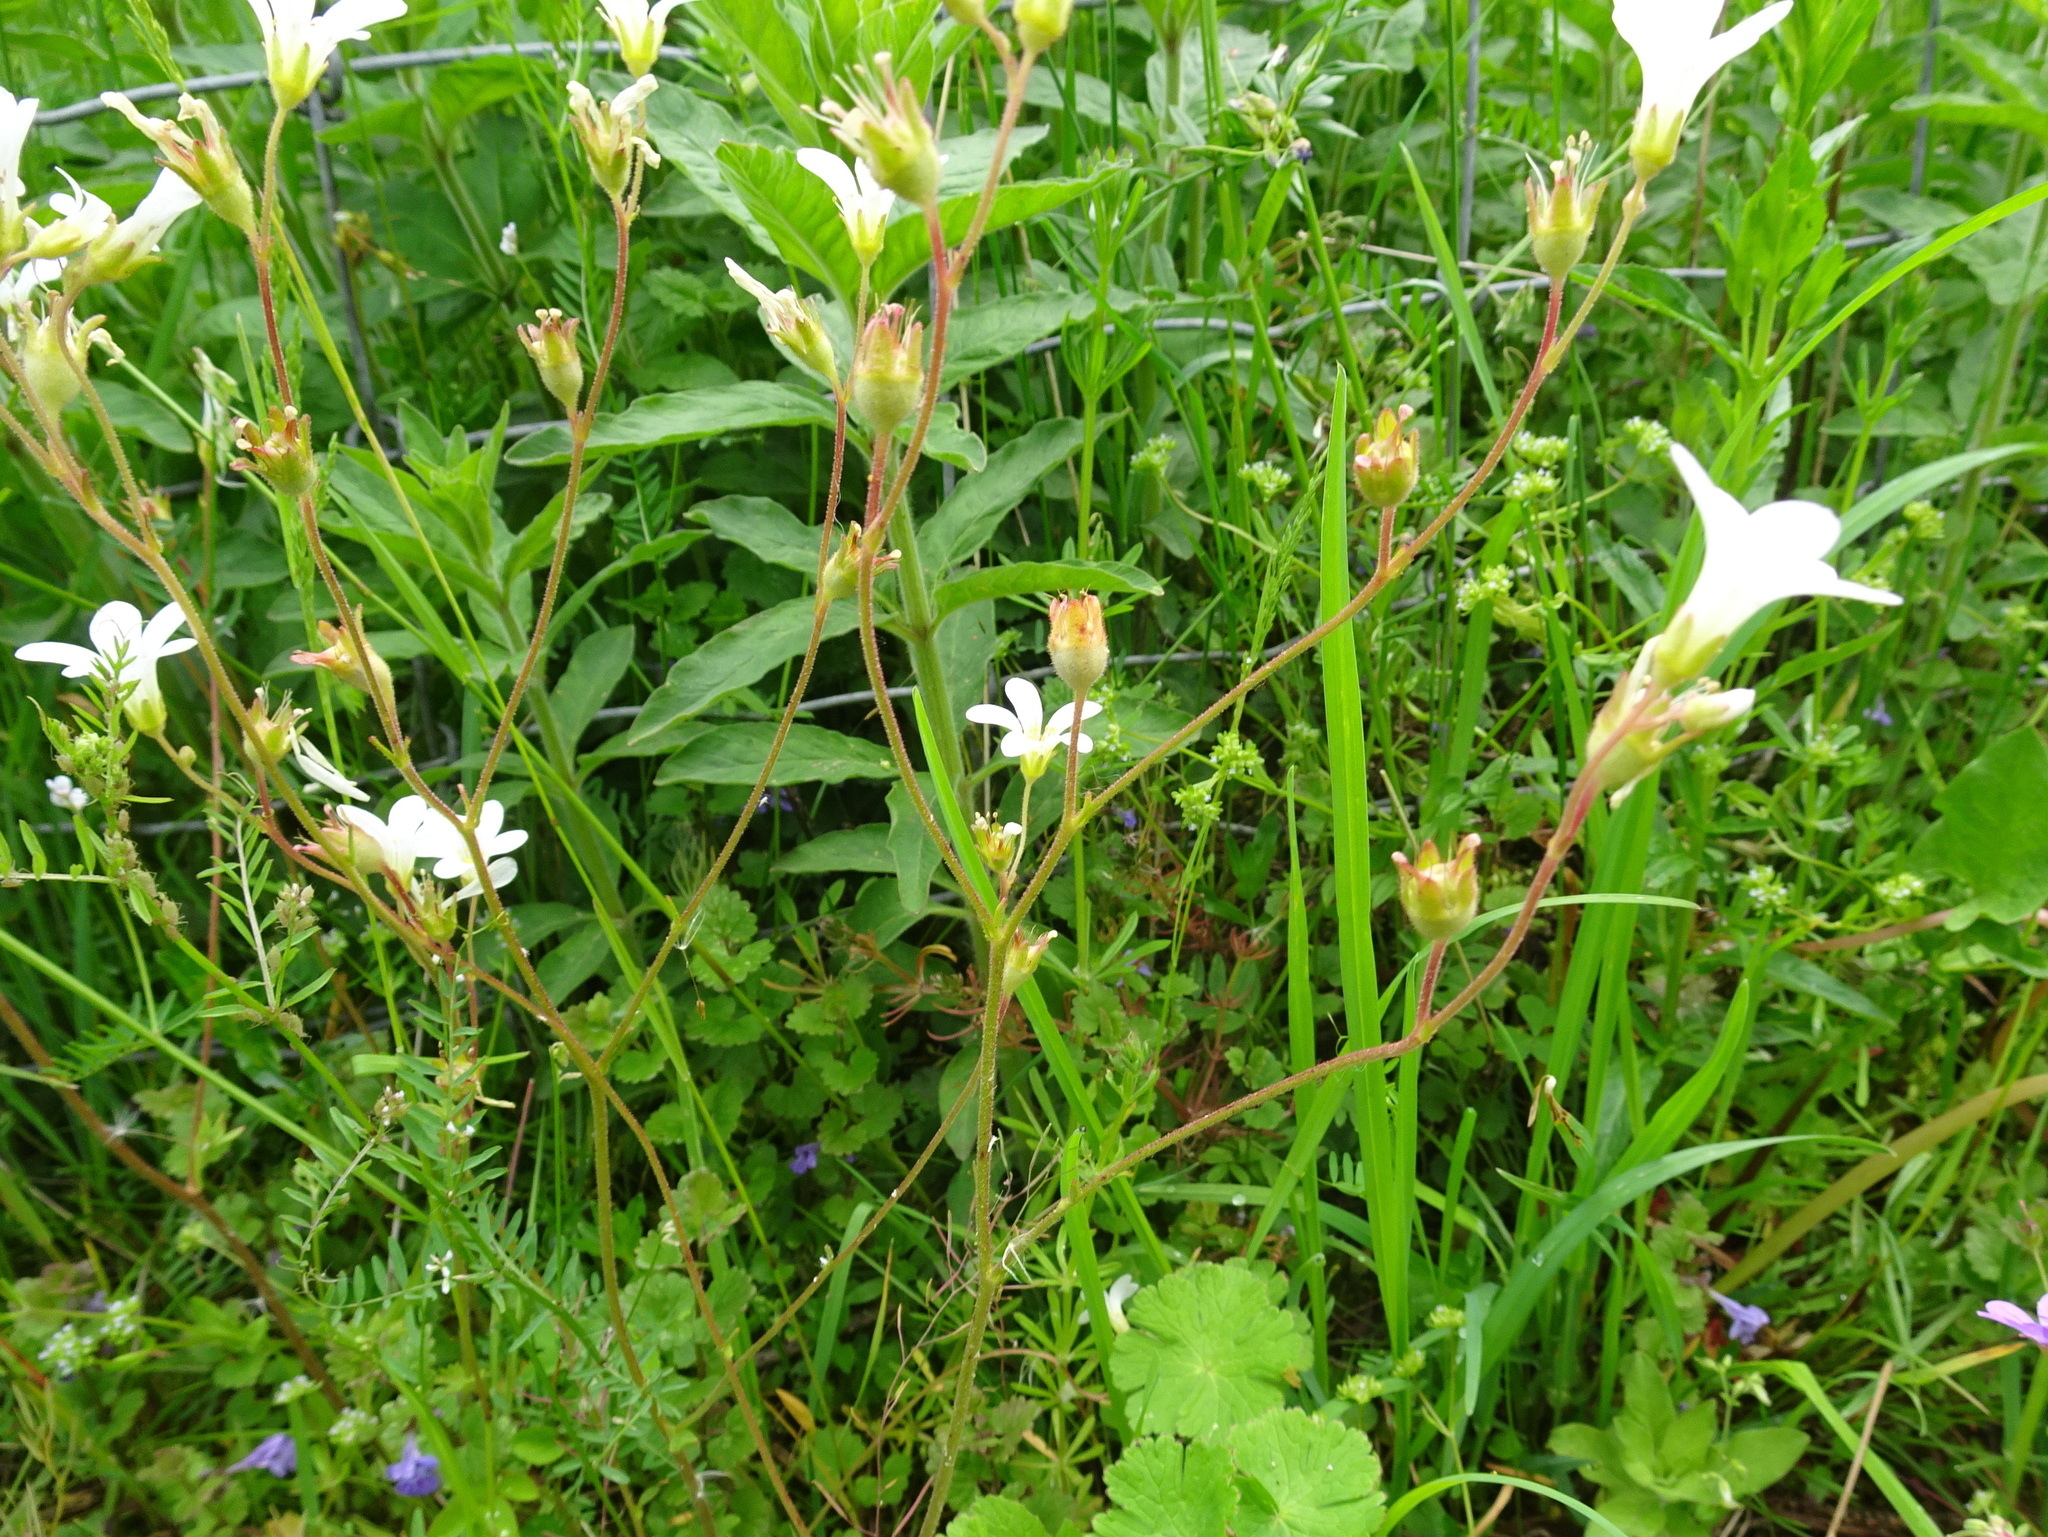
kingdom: Plantae
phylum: Tracheophyta
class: Magnoliopsida
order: Saxifragales
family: Saxifragaceae
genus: Saxifraga
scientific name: Saxifraga granulata
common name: Meadow saxifrage
